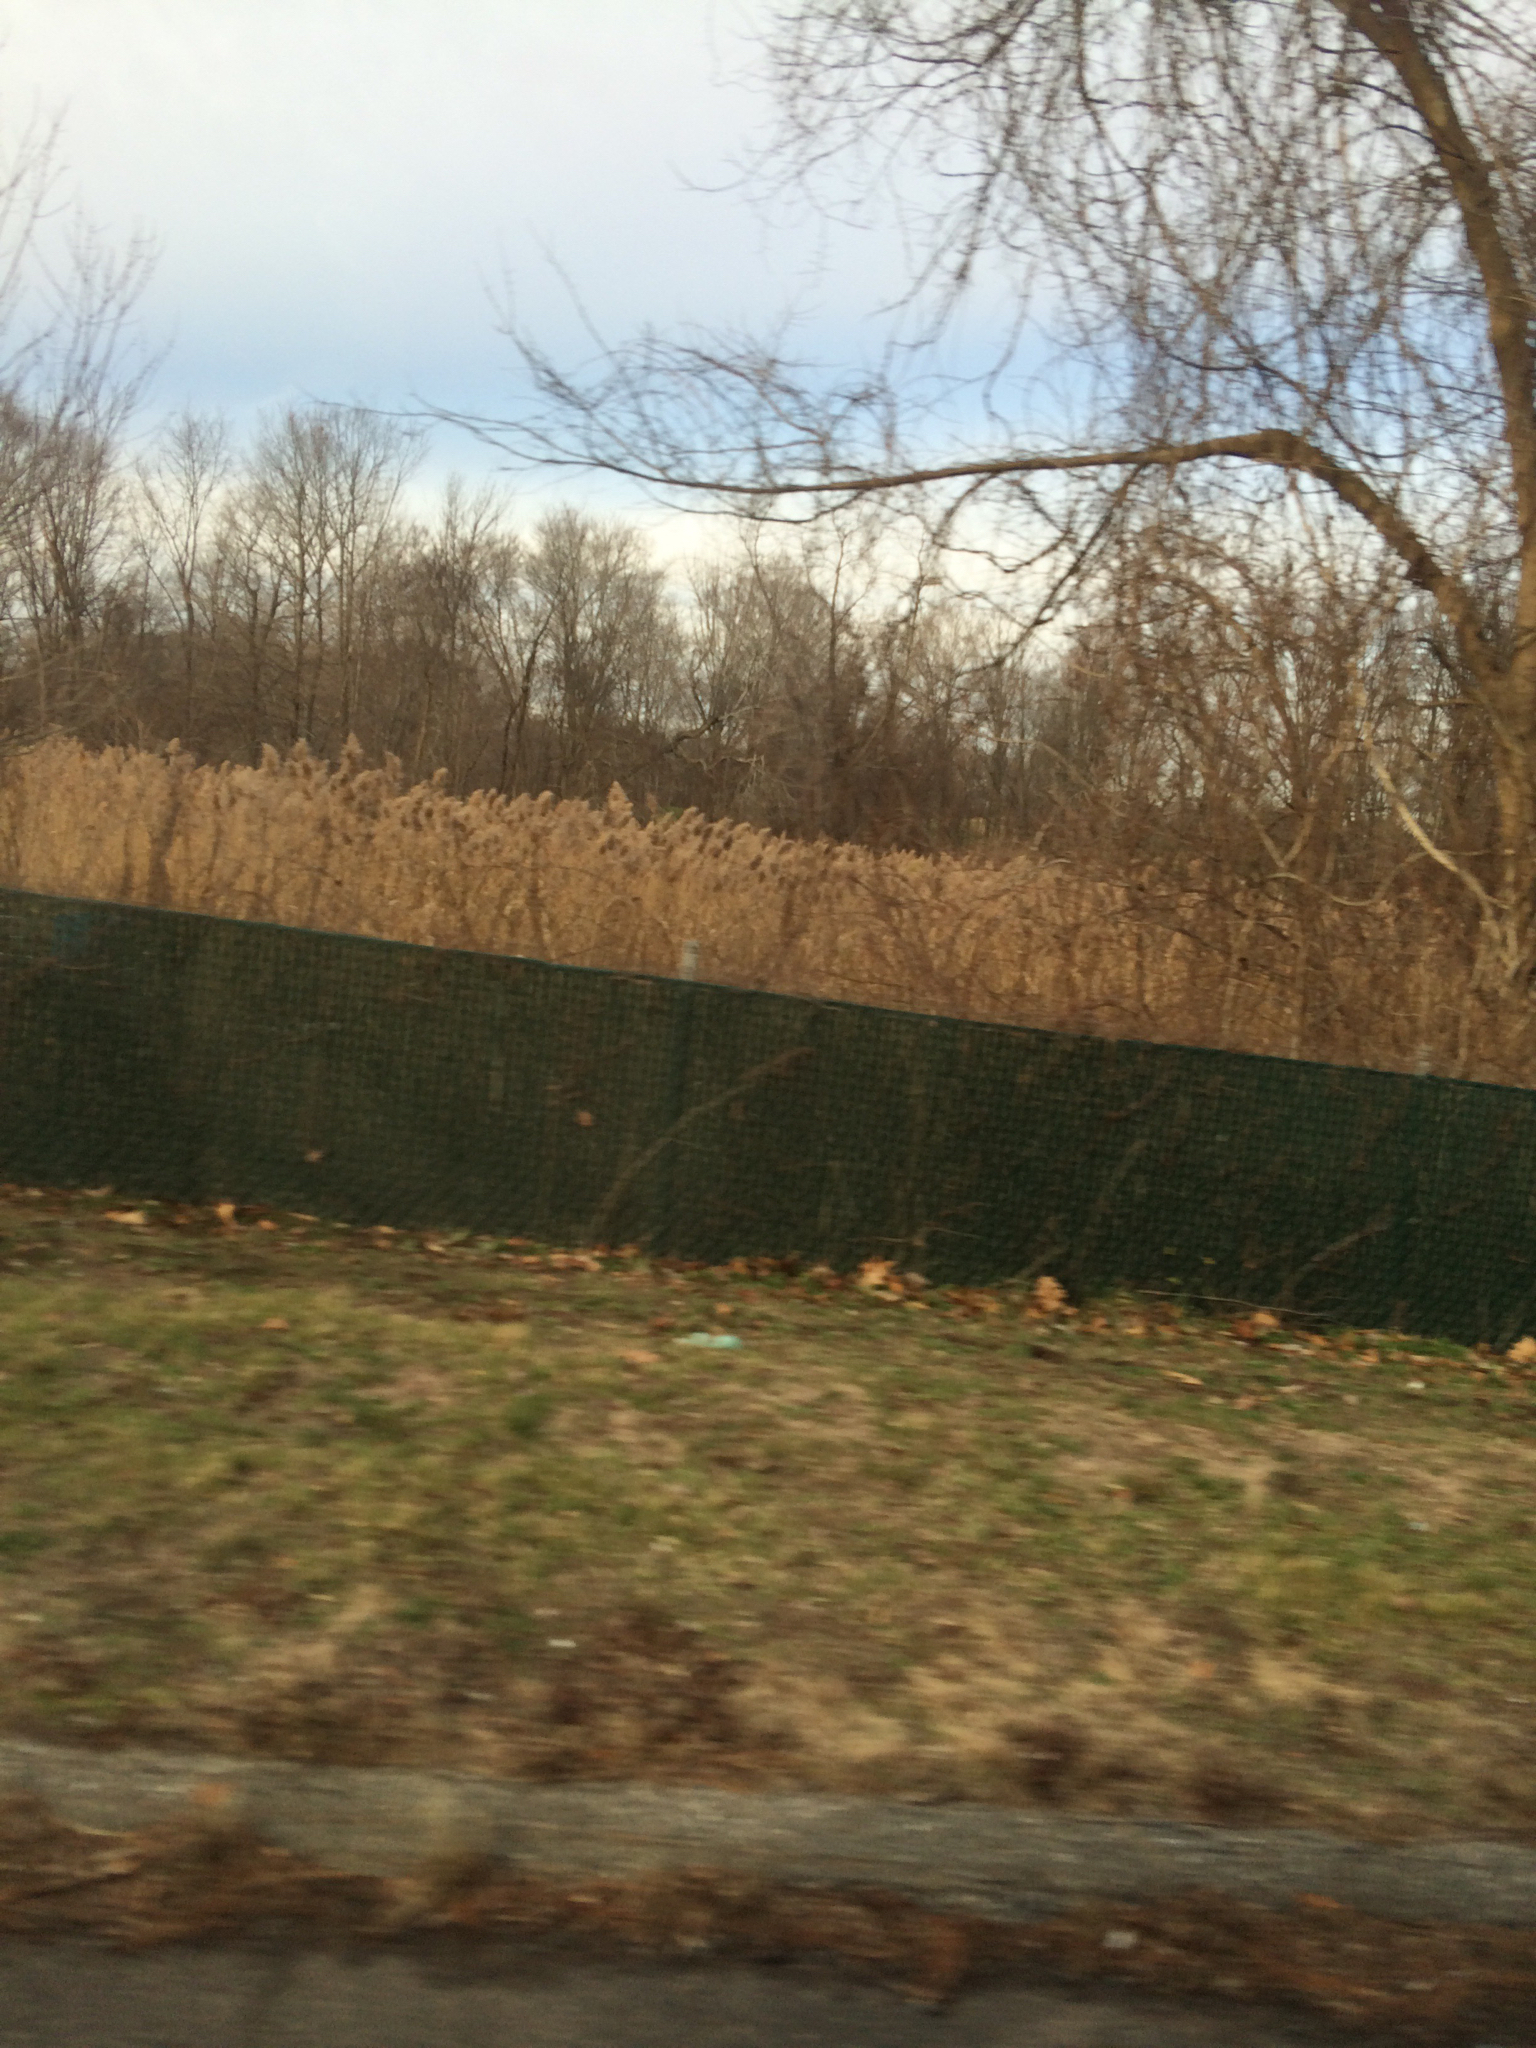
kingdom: Plantae
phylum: Tracheophyta
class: Liliopsida
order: Poales
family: Poaceae
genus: Phragmites
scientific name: Phragmites australis
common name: Common reed
